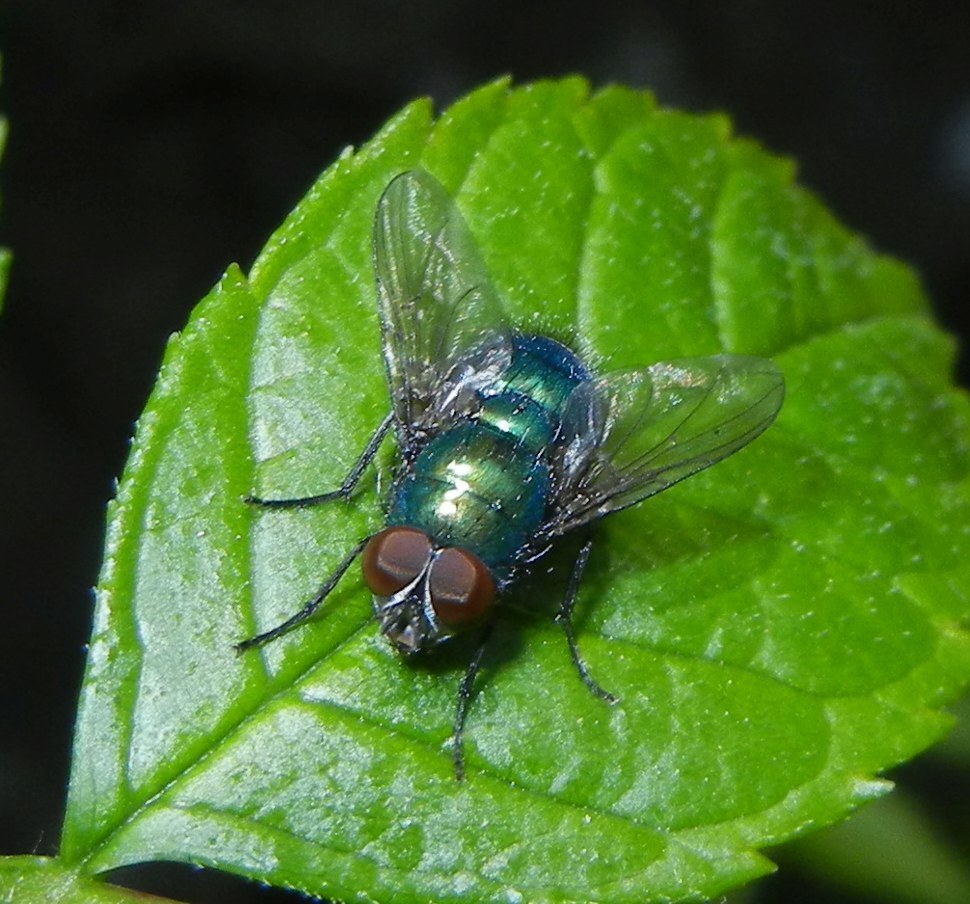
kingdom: Animalia
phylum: Arthropoda
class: Insecta
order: Diptera
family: Calliphoridae
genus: Lucilia
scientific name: Lucilia
